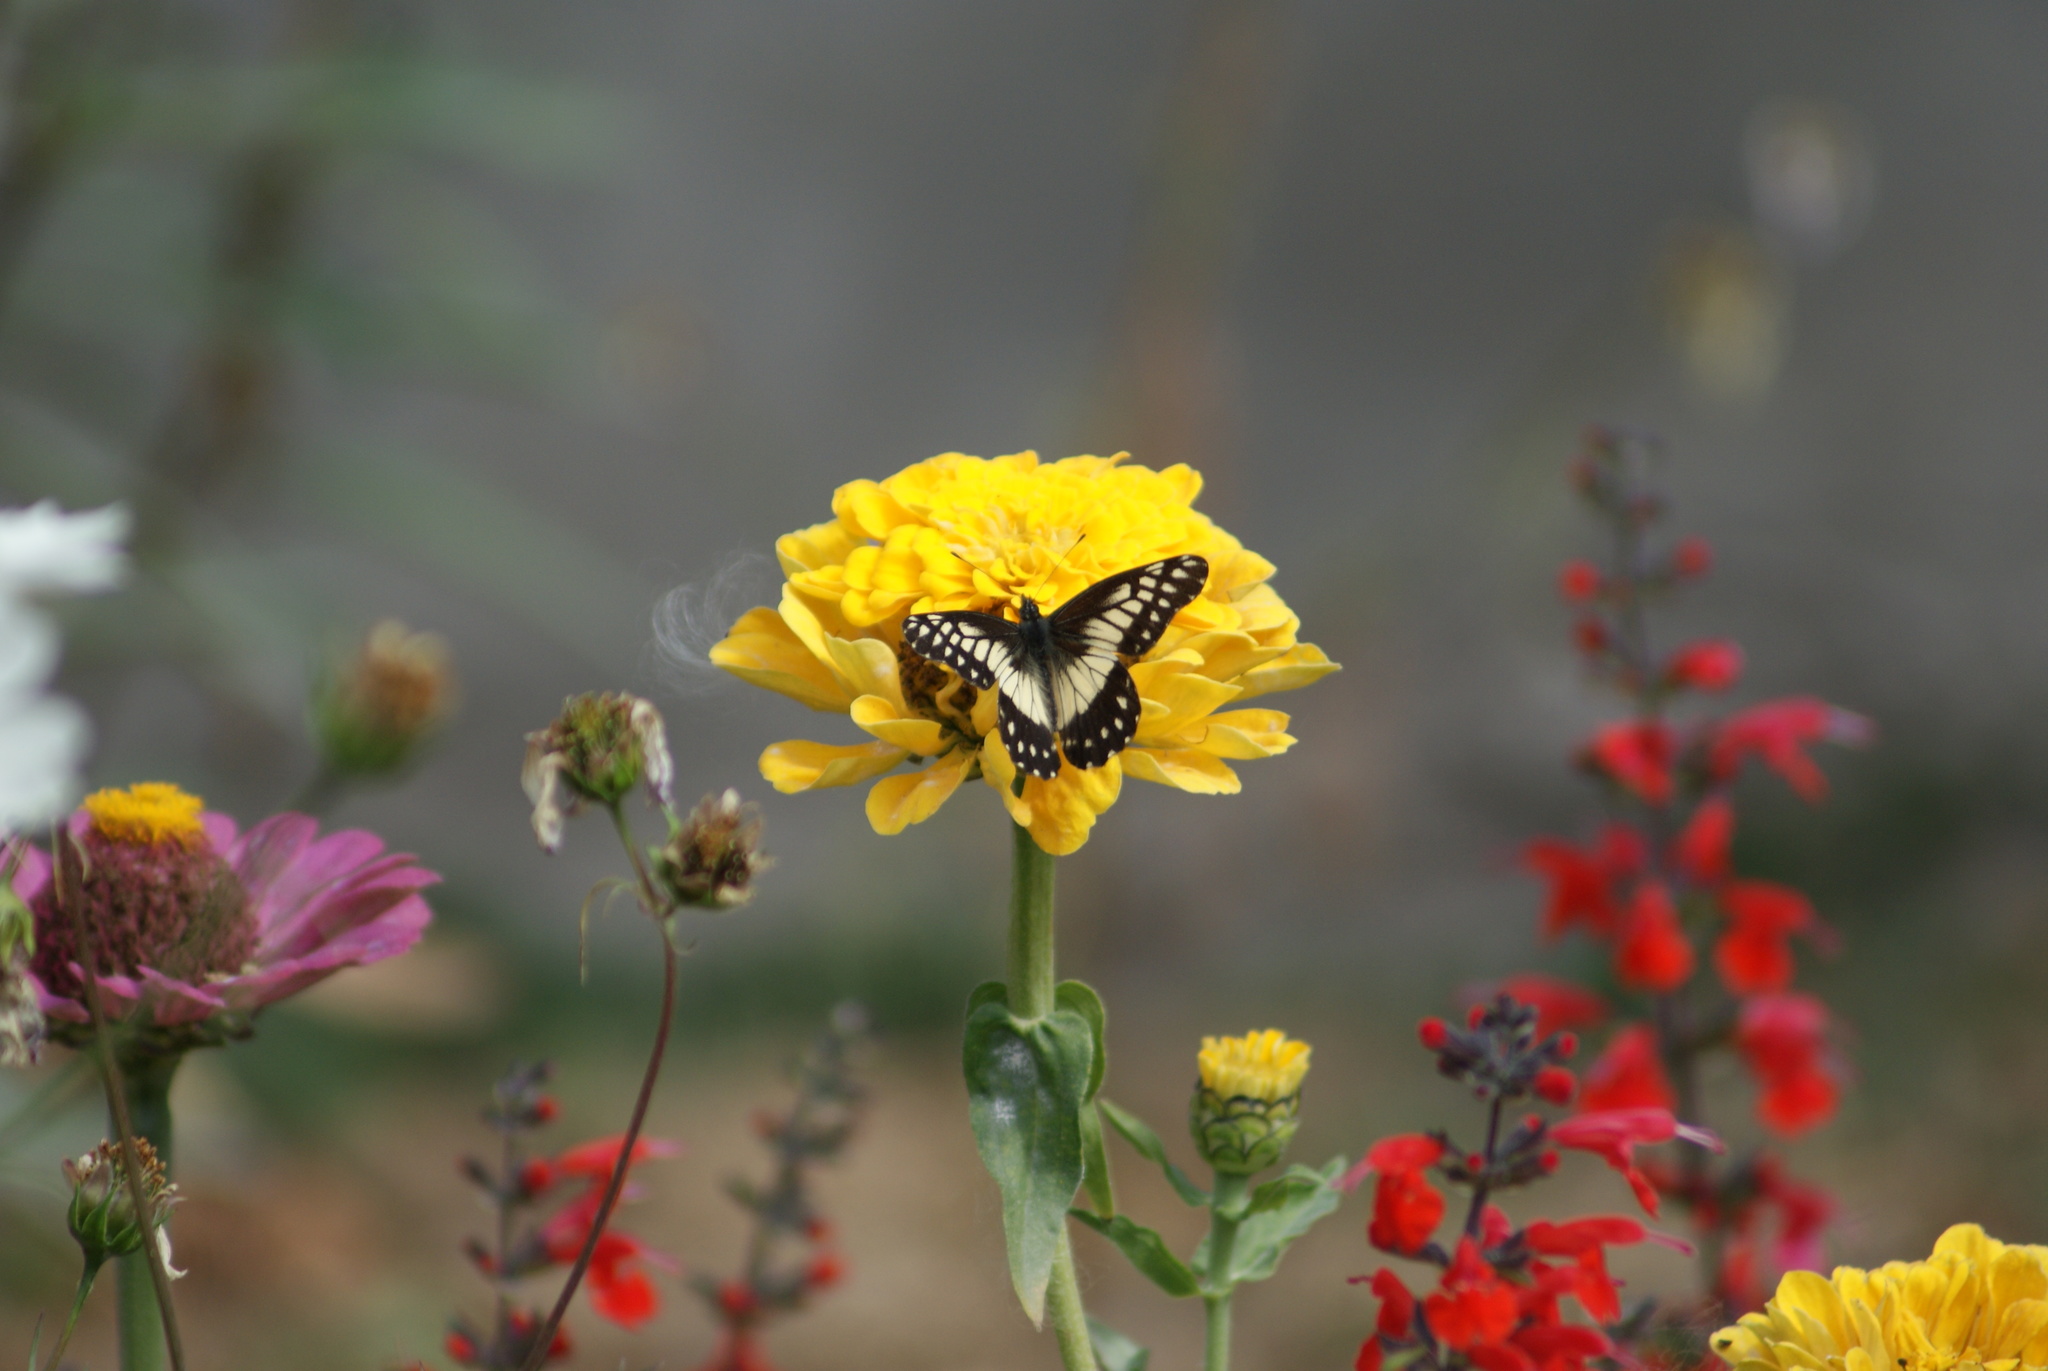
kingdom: Animalia
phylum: Arthropoda
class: Insecta
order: Lepidoptera
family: Pieridae
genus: Archonias
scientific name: Archonias nimbice
